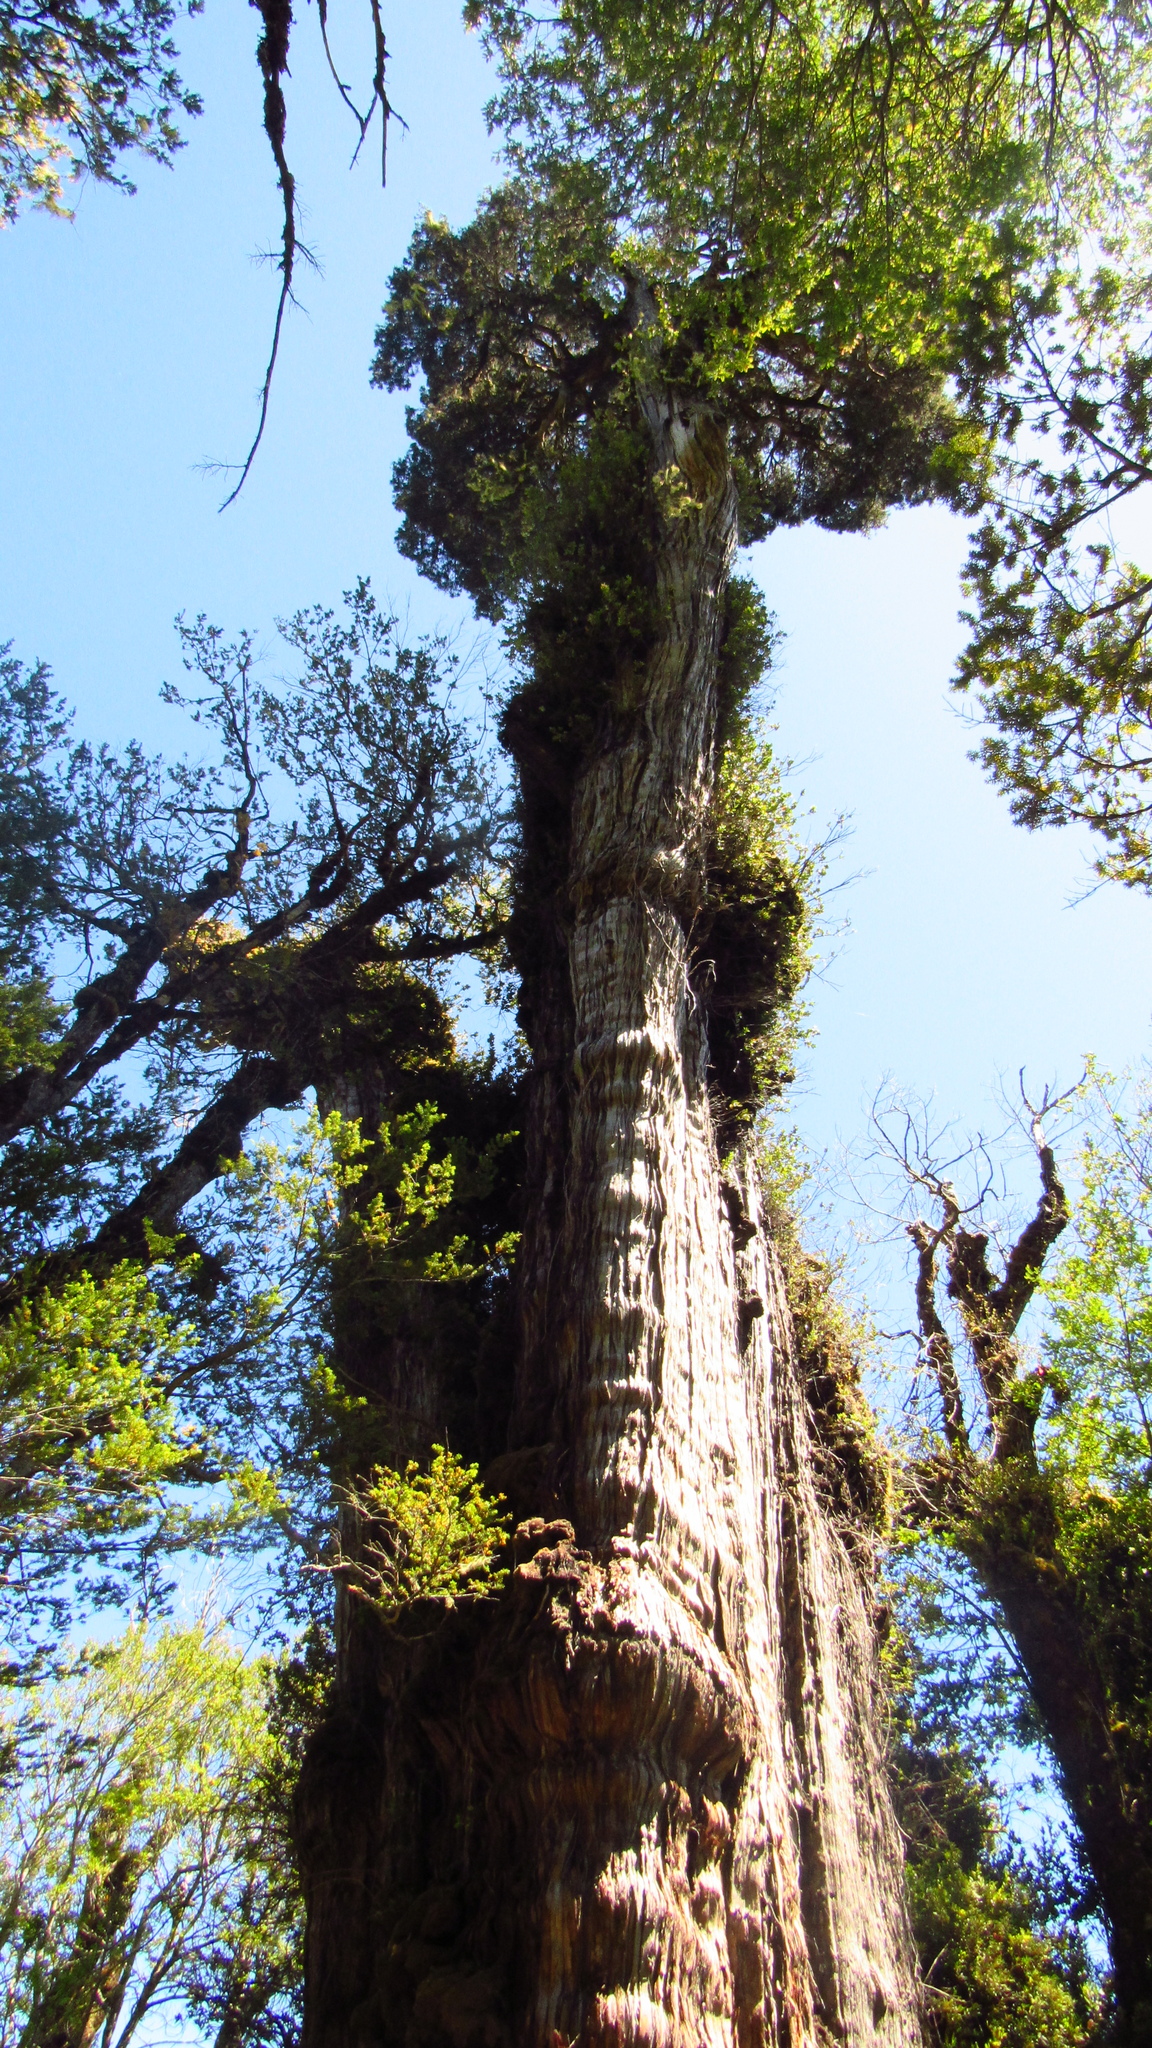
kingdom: Plantae
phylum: Tracheophyta
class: Pinopsida
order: Pinales
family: Cupressaceae
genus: Fitzroya
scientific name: Fitzroya cupressoides
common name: Patagonian cypress
